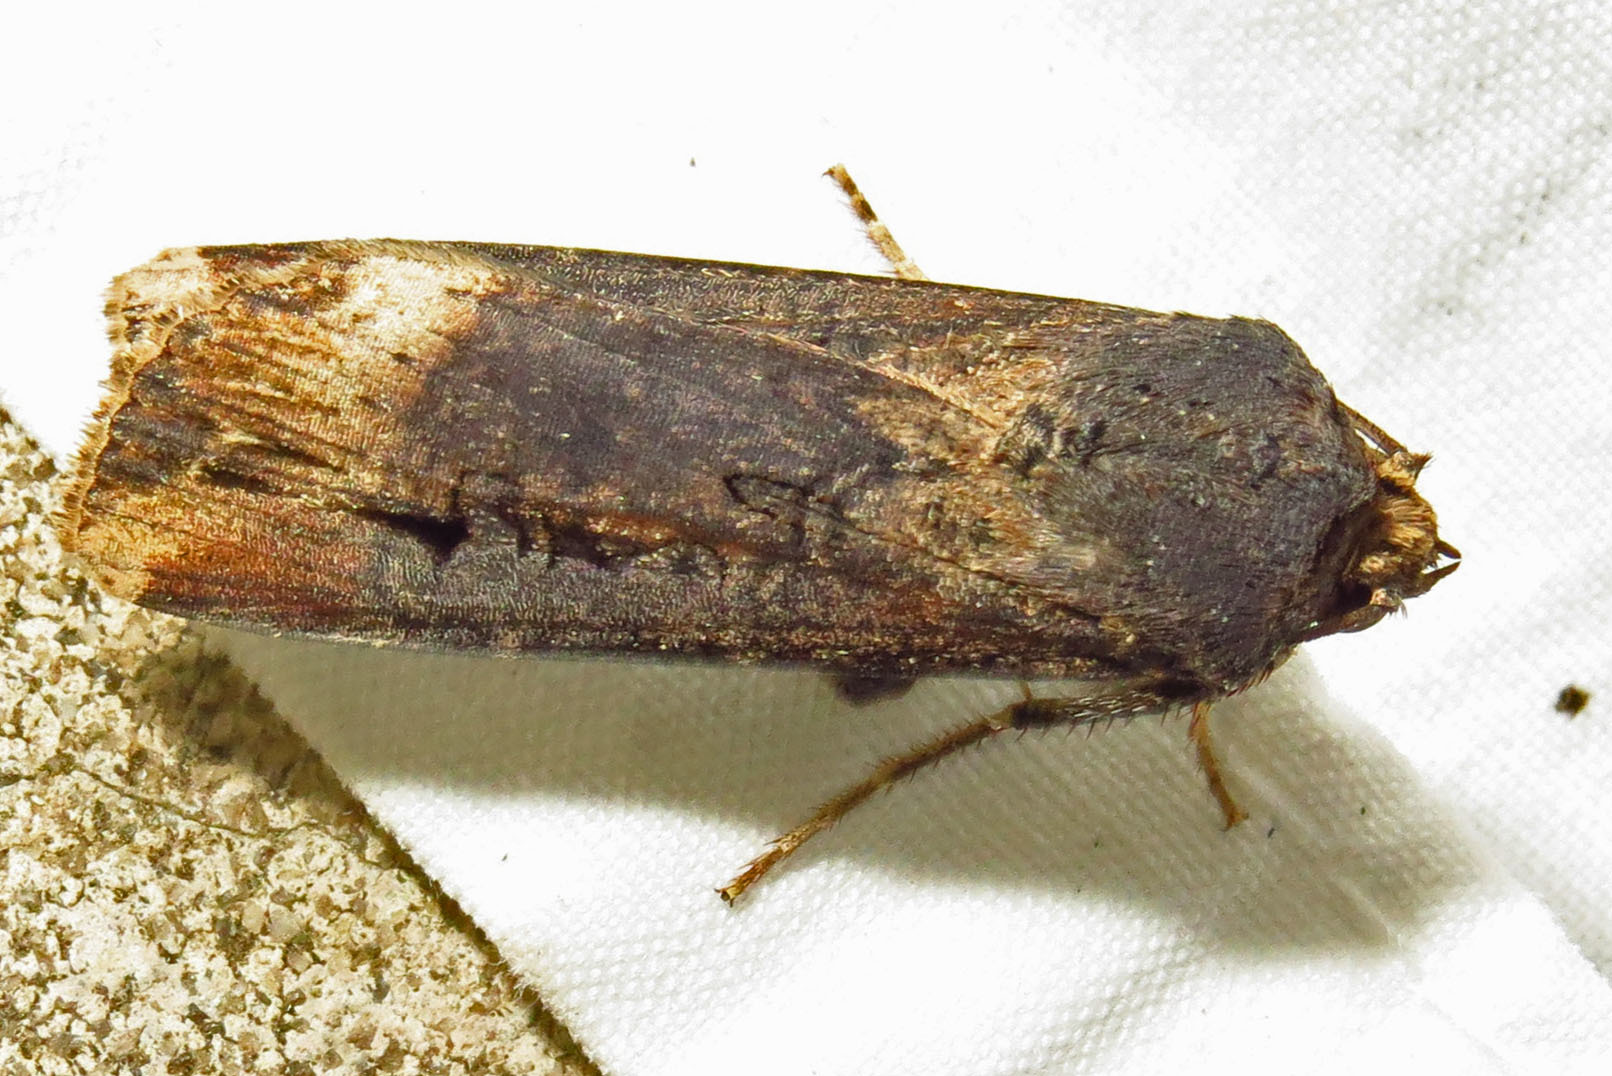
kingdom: Animalia
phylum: Arthropoda
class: Insecta
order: Lepidoptera
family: Noctuidae
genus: Agrotis
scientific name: Agrotis ipsilon
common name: Dark sword-grass
